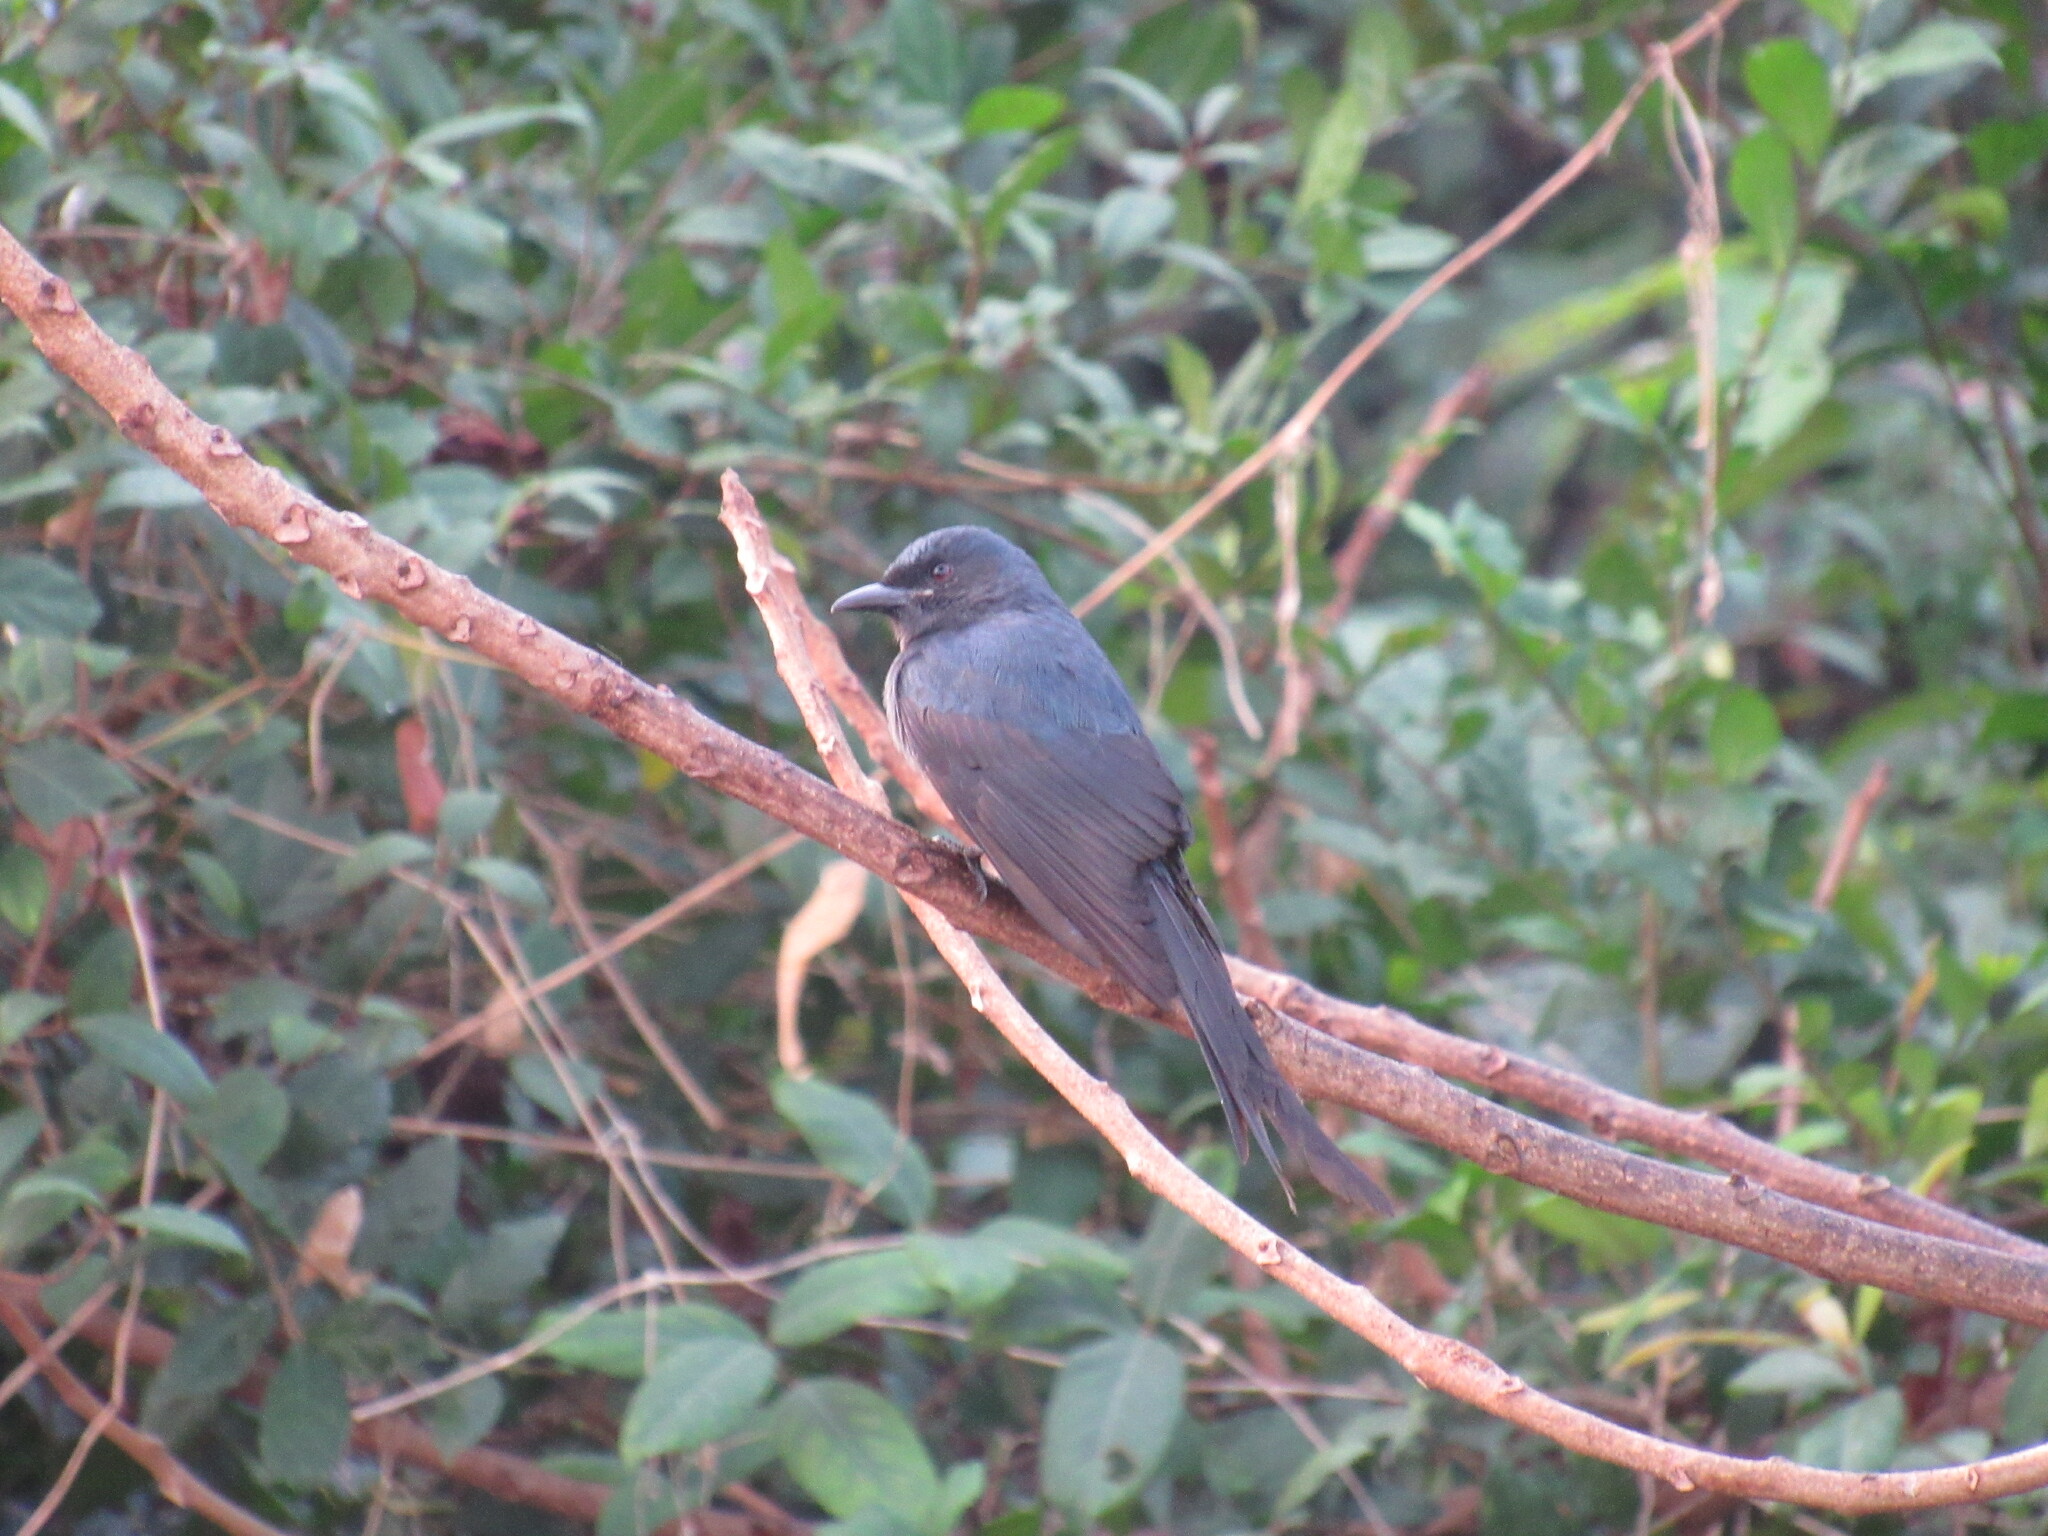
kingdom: Animalia
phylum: Chordata
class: Aves
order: Passeriformes
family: Dicruridae
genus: Dicrurus
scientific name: Dicrurus leucophaeus
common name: Ashy drongo
